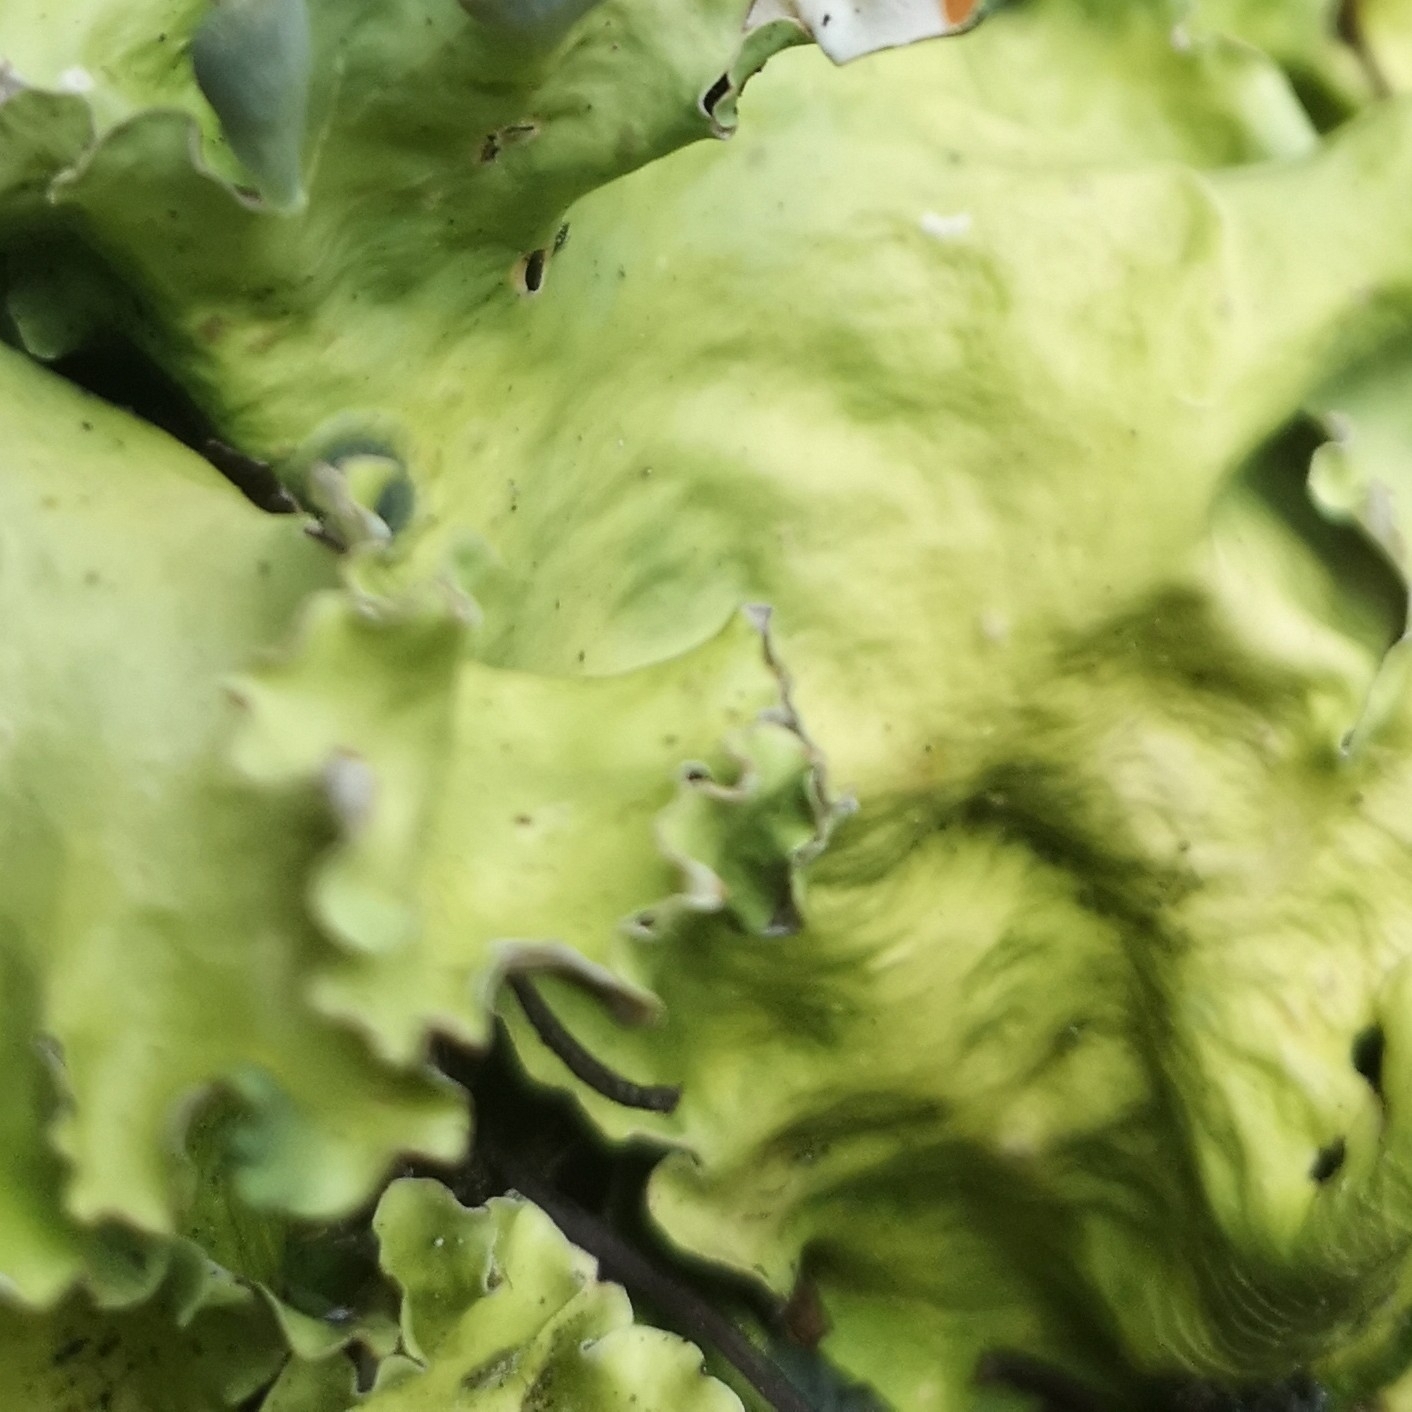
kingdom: Fungi
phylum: Ascomycota
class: Lecanoromycetes
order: Peltigerales
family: Nephromataceae
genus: Nephroma
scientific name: Nephroma arcticum
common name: Arctic kidney-lichen
